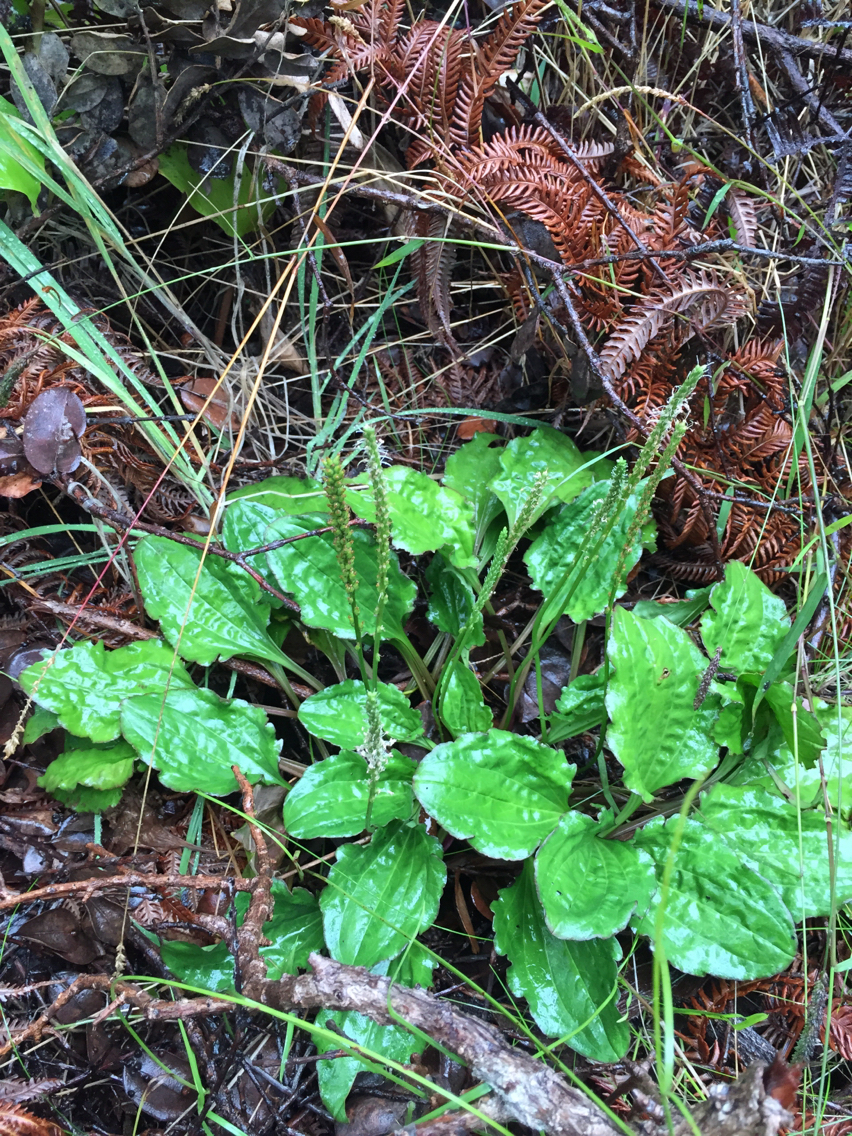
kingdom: Plantae
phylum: Tracheophyta
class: Magnoliopsida
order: Lamiales
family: Plantaginaceae
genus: Plantago
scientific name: Plantago major
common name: Common plantain
